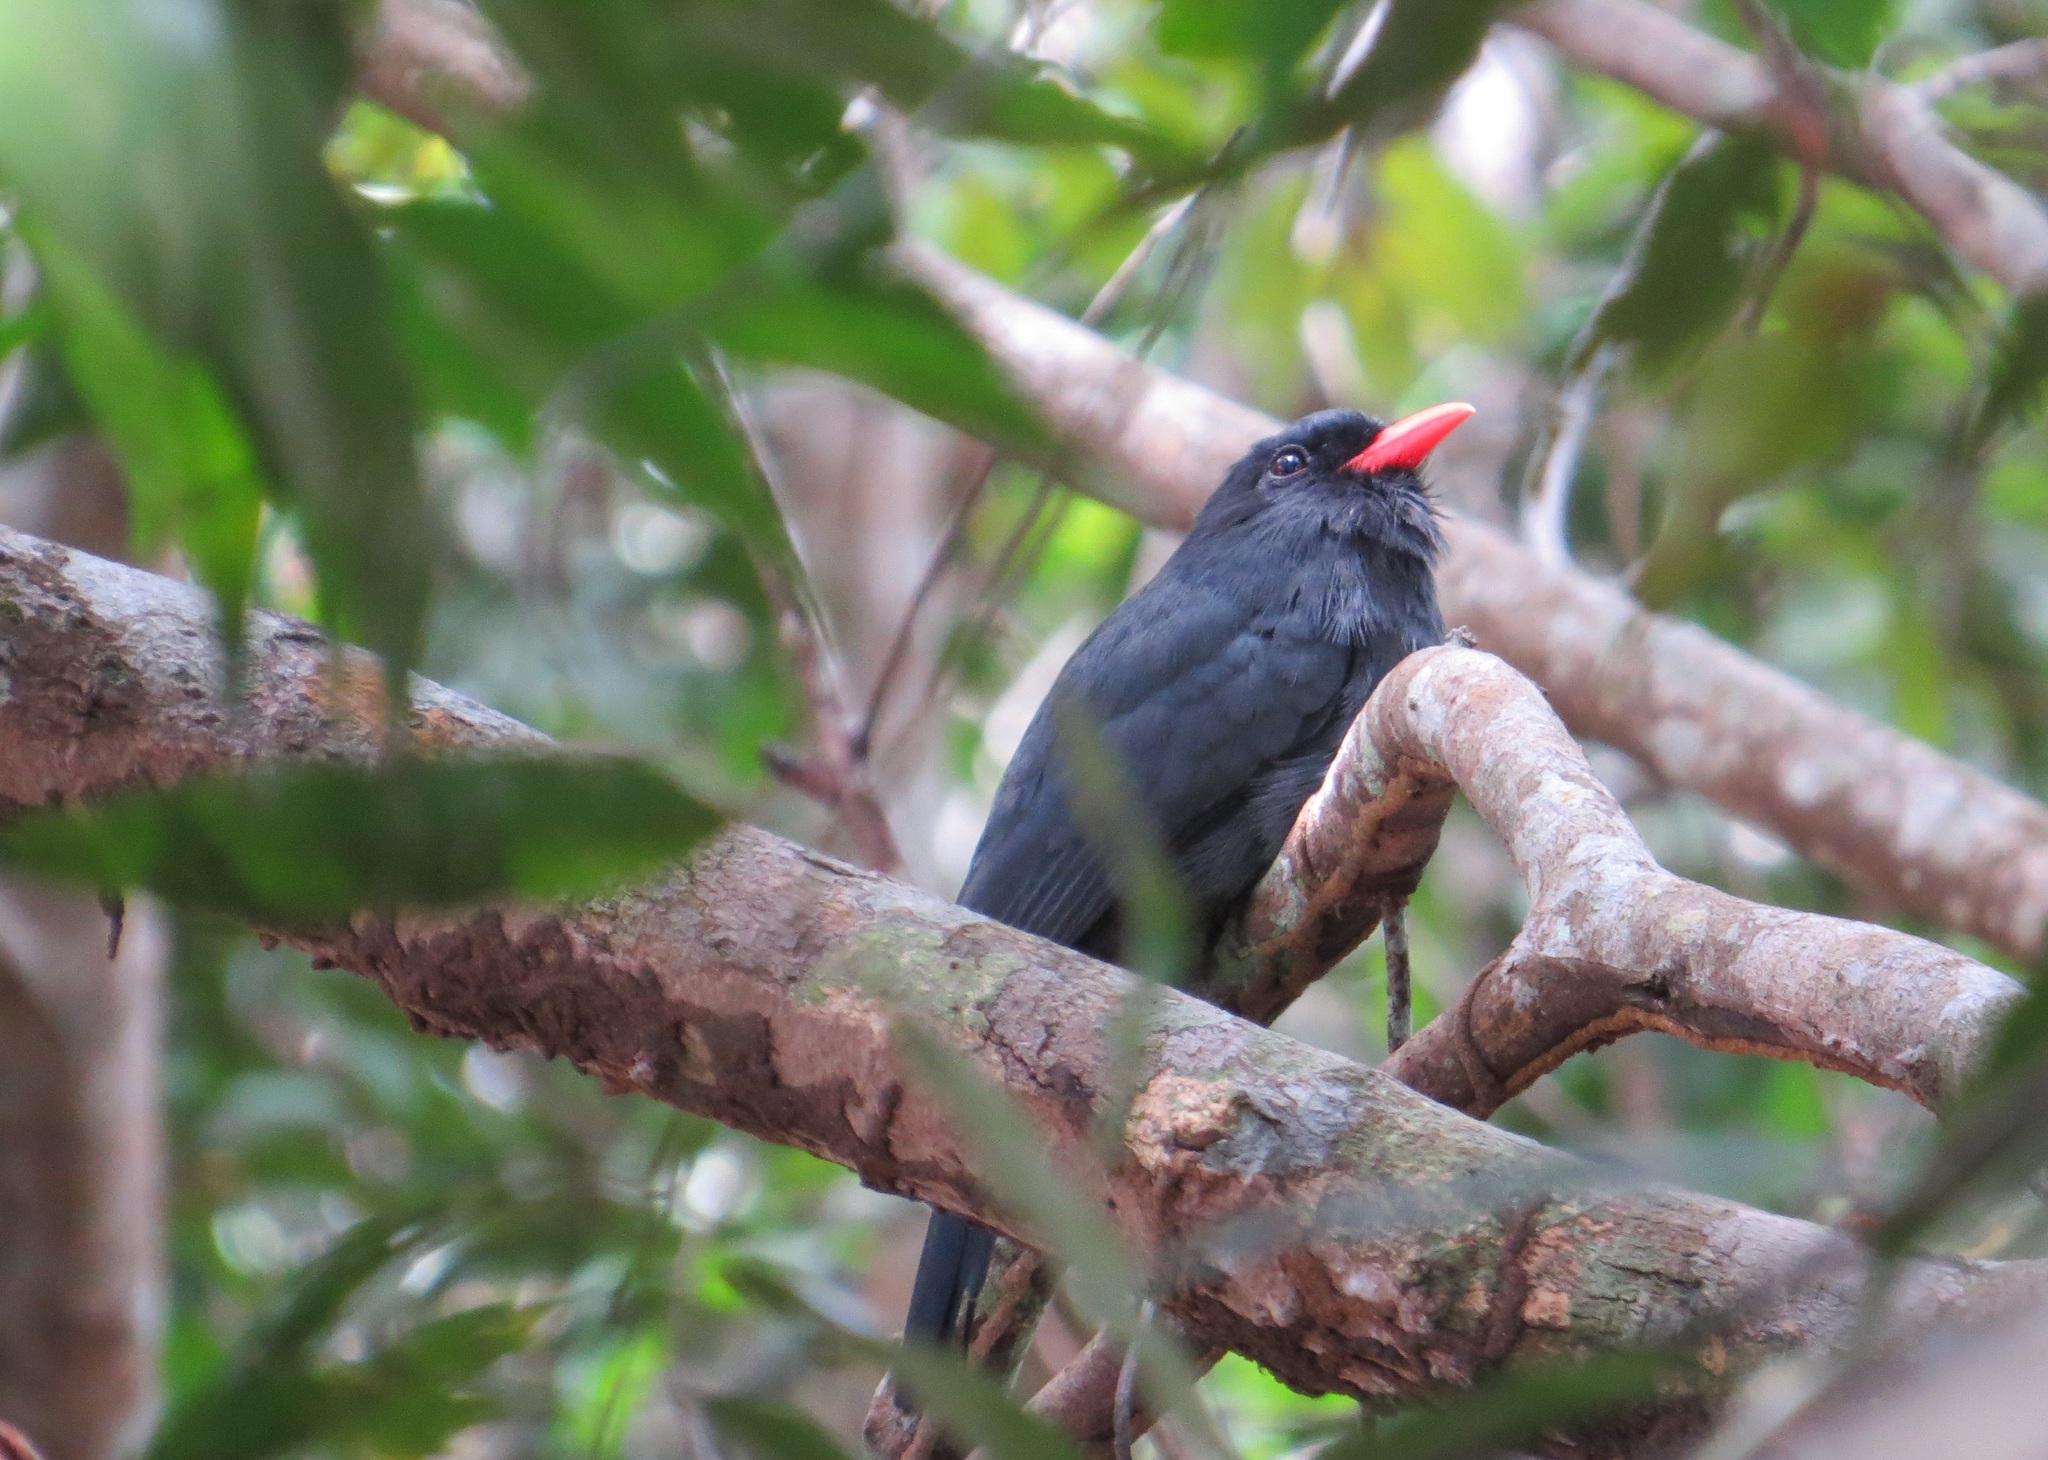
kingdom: Animalia
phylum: Chordata
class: Aves
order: Piciformes
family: Bucconidae
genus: Monasa
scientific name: Monasa nigrifrons
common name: Black-fronted nunbird
